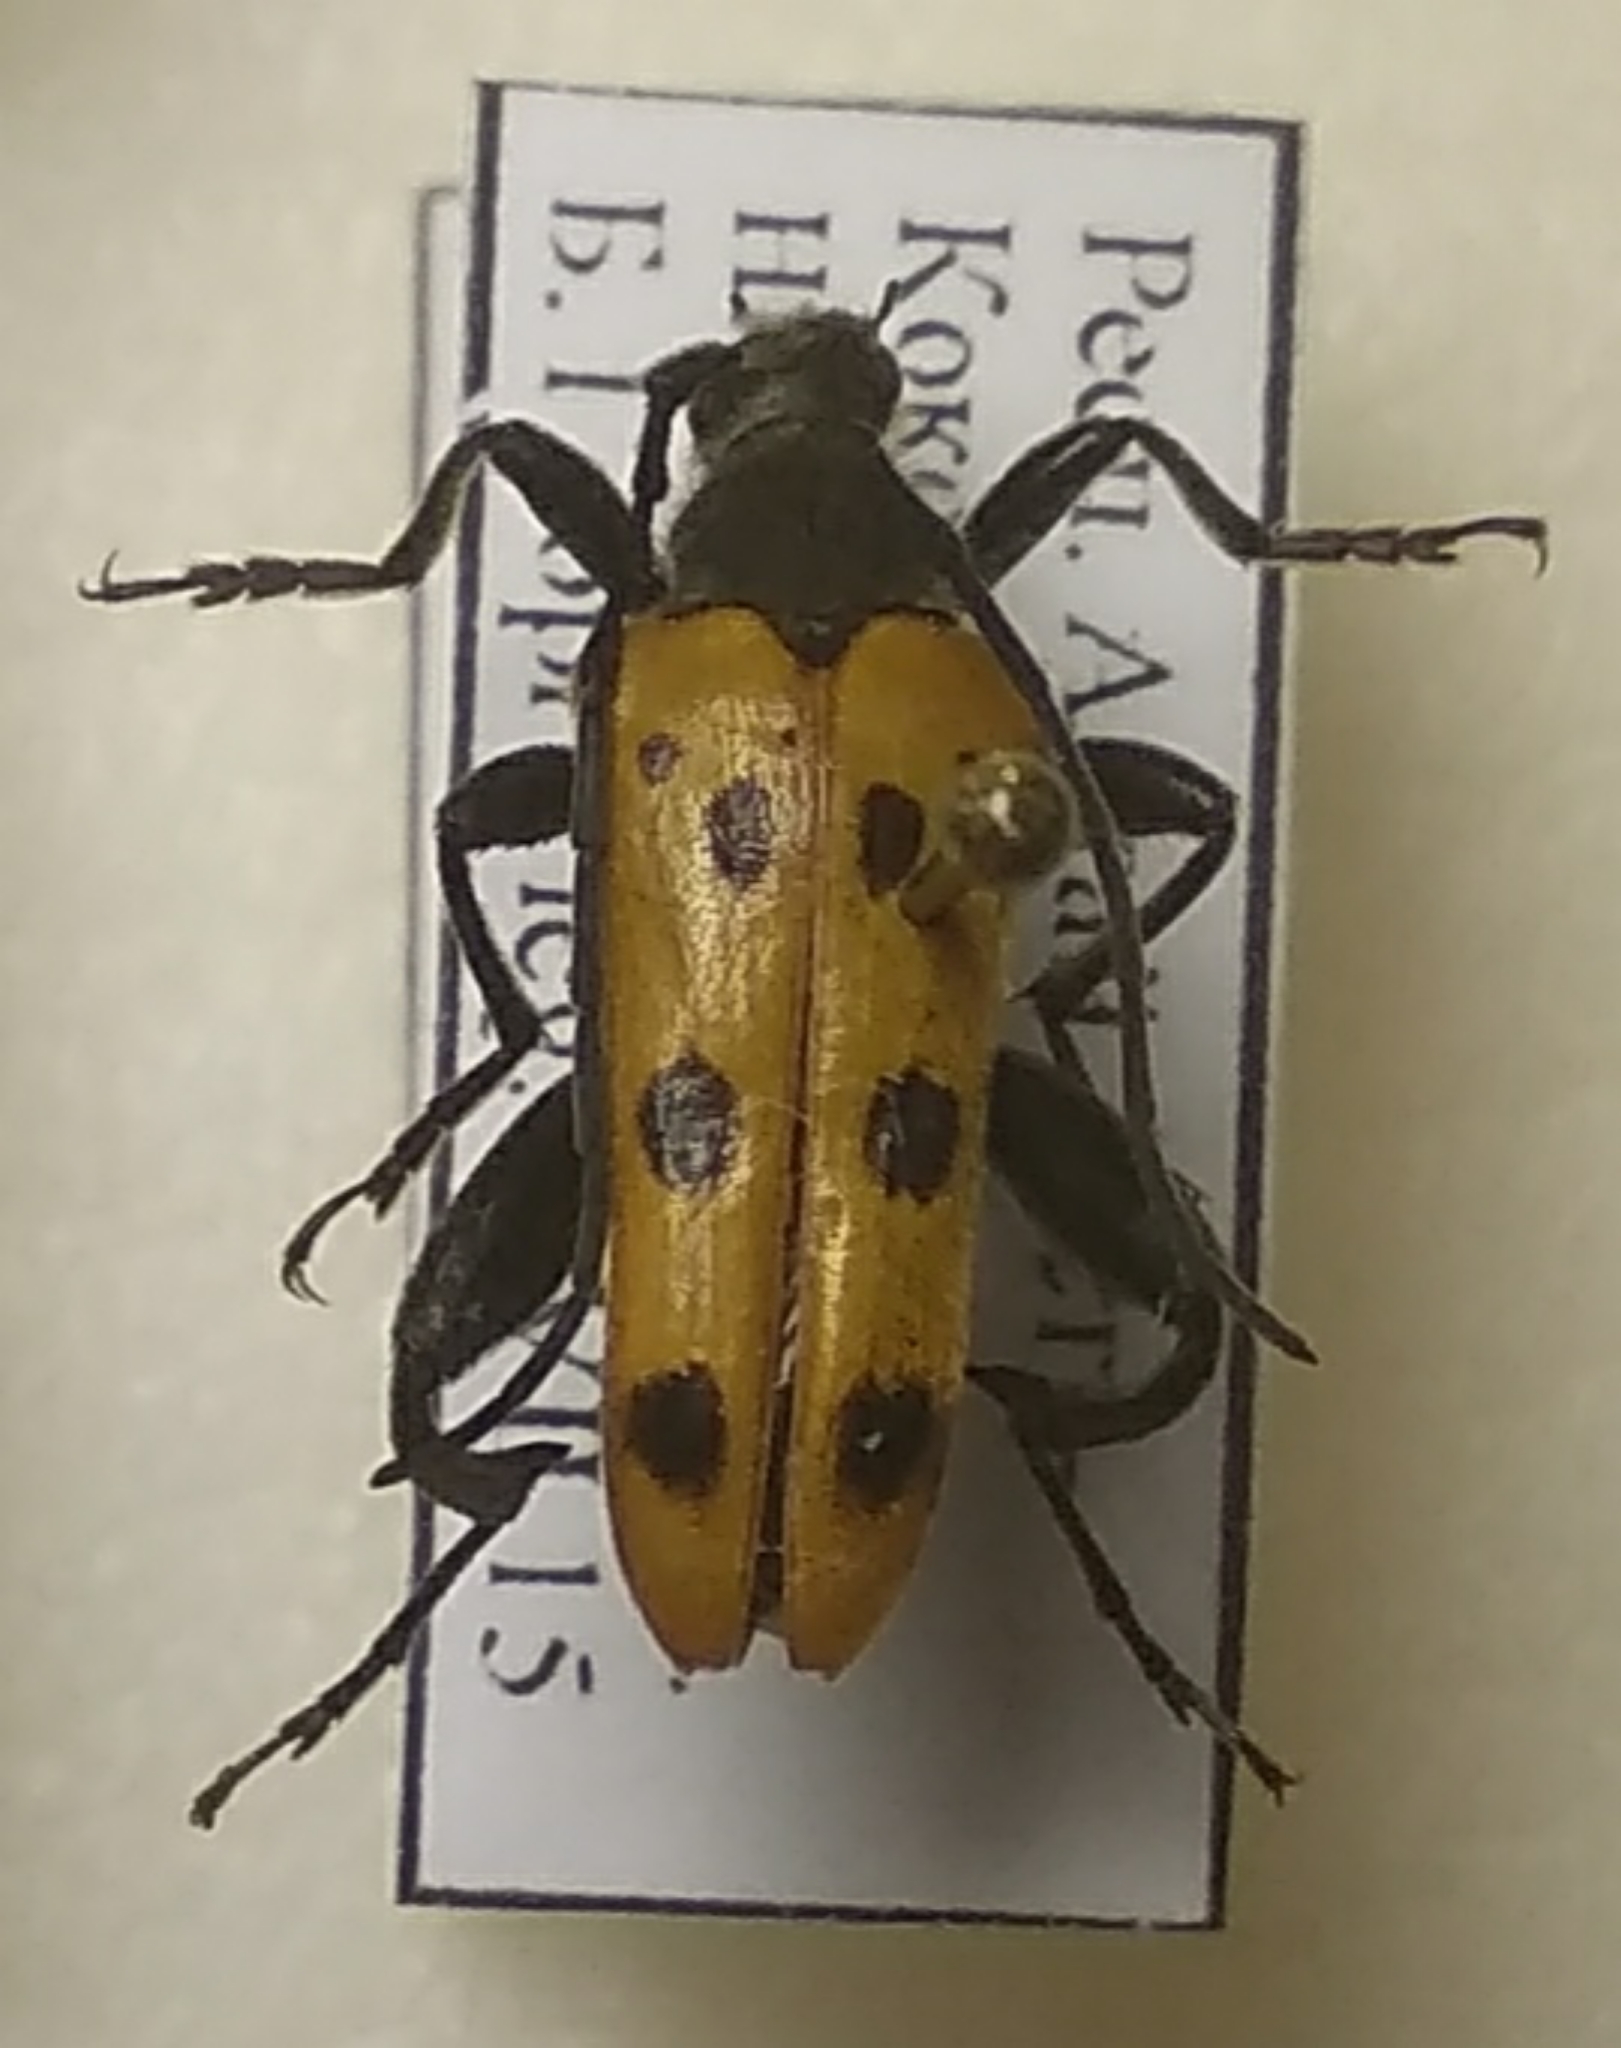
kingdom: Animalia
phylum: Arthropoda
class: Insecta
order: Coleoptera
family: Cerambycidae
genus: Oedecnema
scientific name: Oedecnema gebleri
